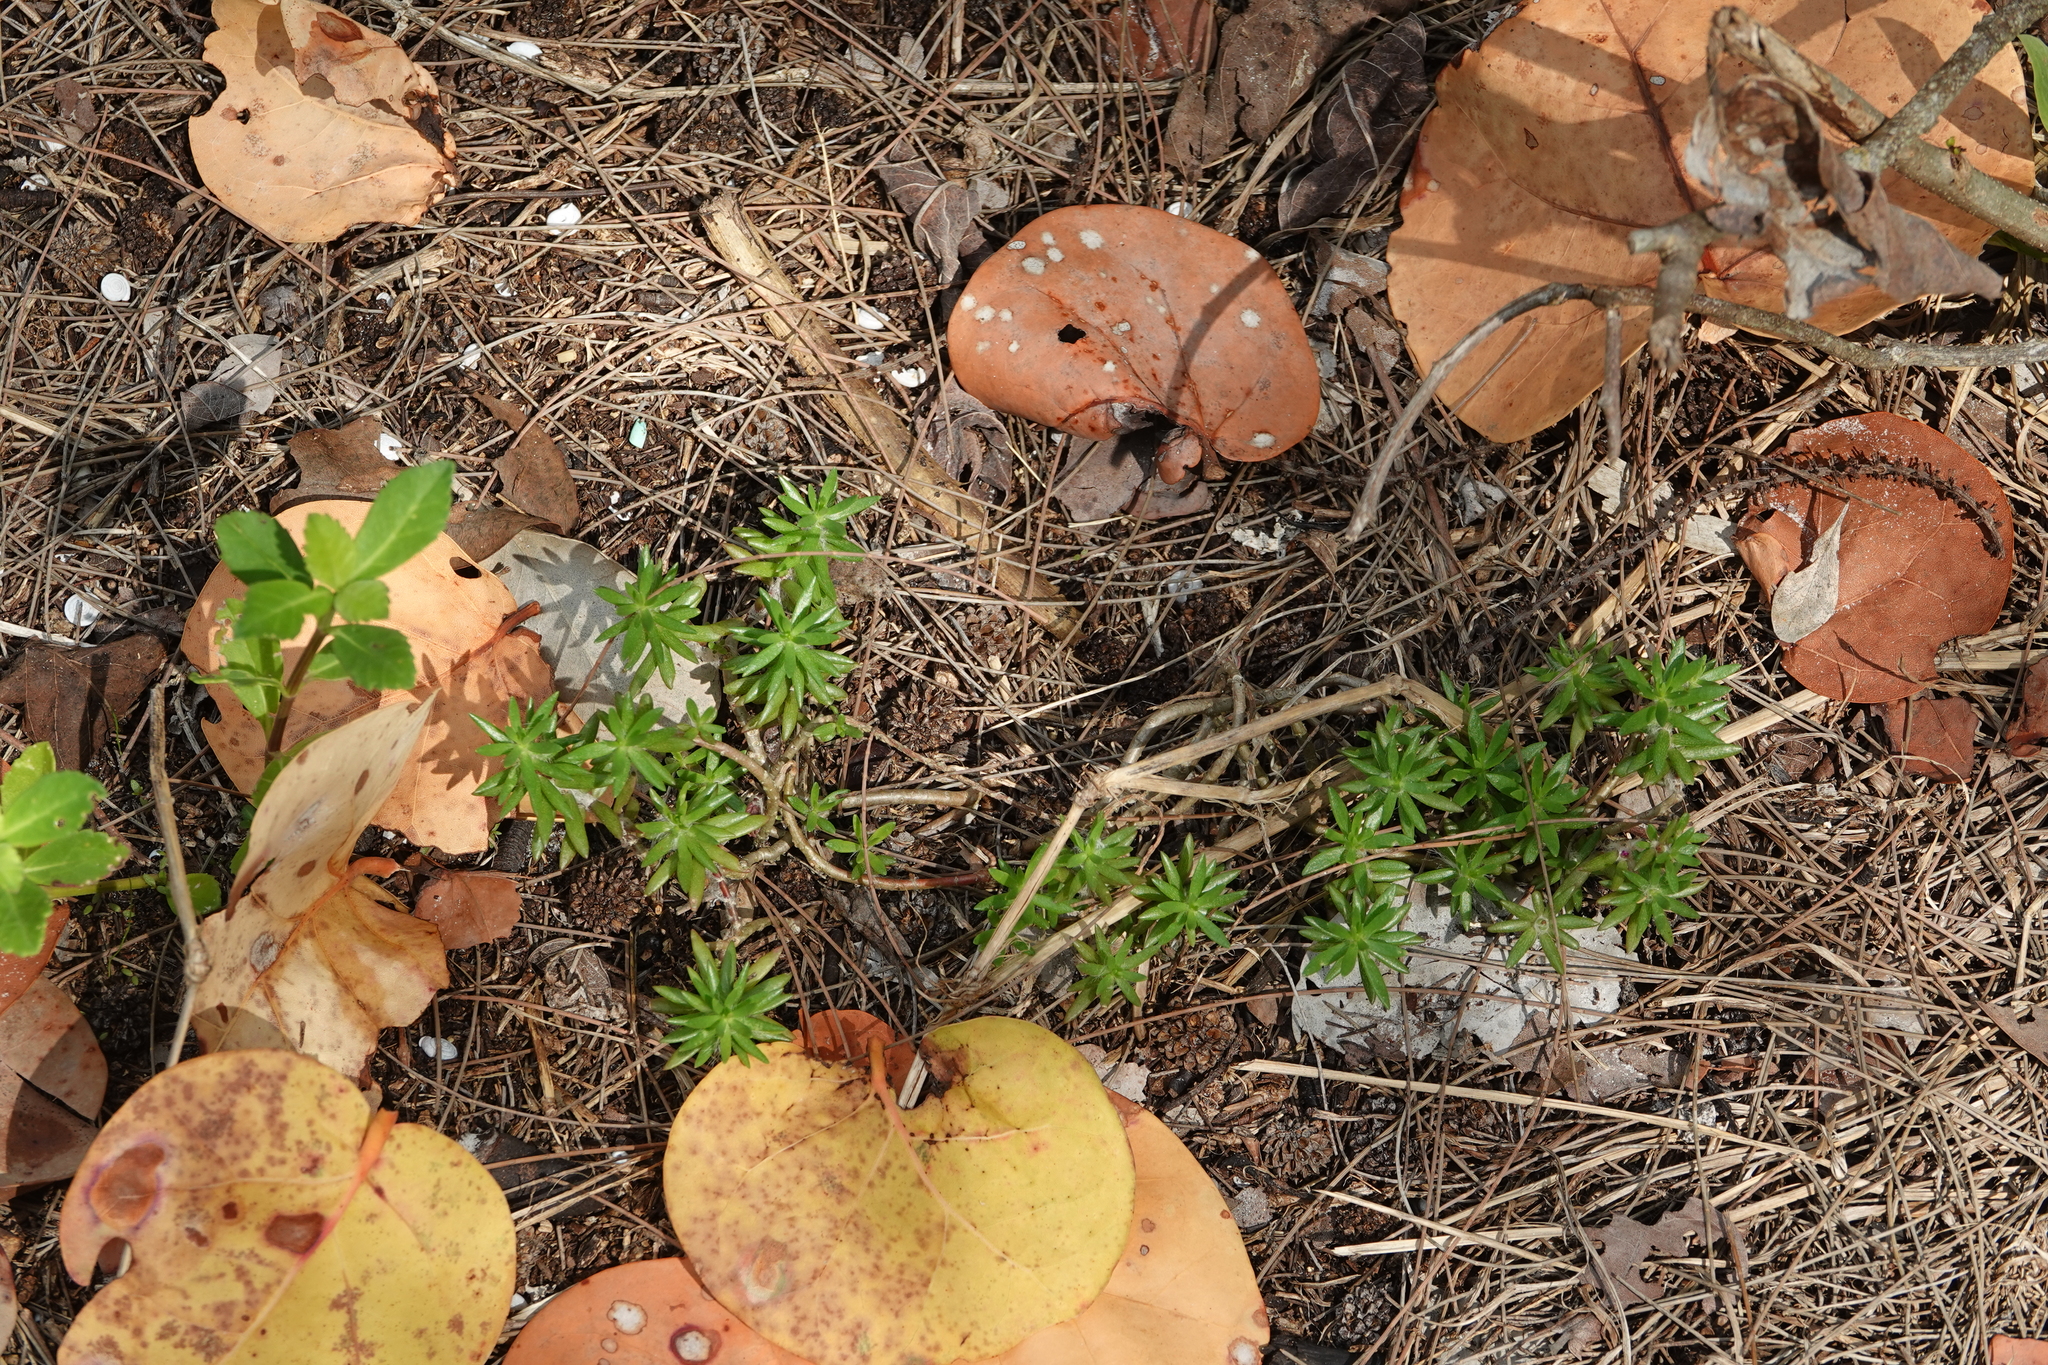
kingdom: Plantae
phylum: Tracheophyta
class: Magnoliopsida
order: Caryophyllales
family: Portulacaceae
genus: Portulaca
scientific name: Portulaca pilosa
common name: Kiss me quick
